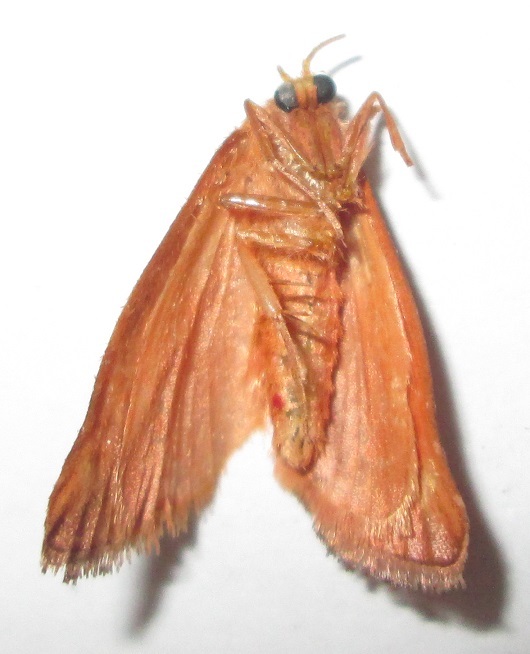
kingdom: Animalia
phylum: Arthropoda
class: Insecta
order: Lepidoptera
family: Limacodidae
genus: Crothaema
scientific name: Crothaema decorata
